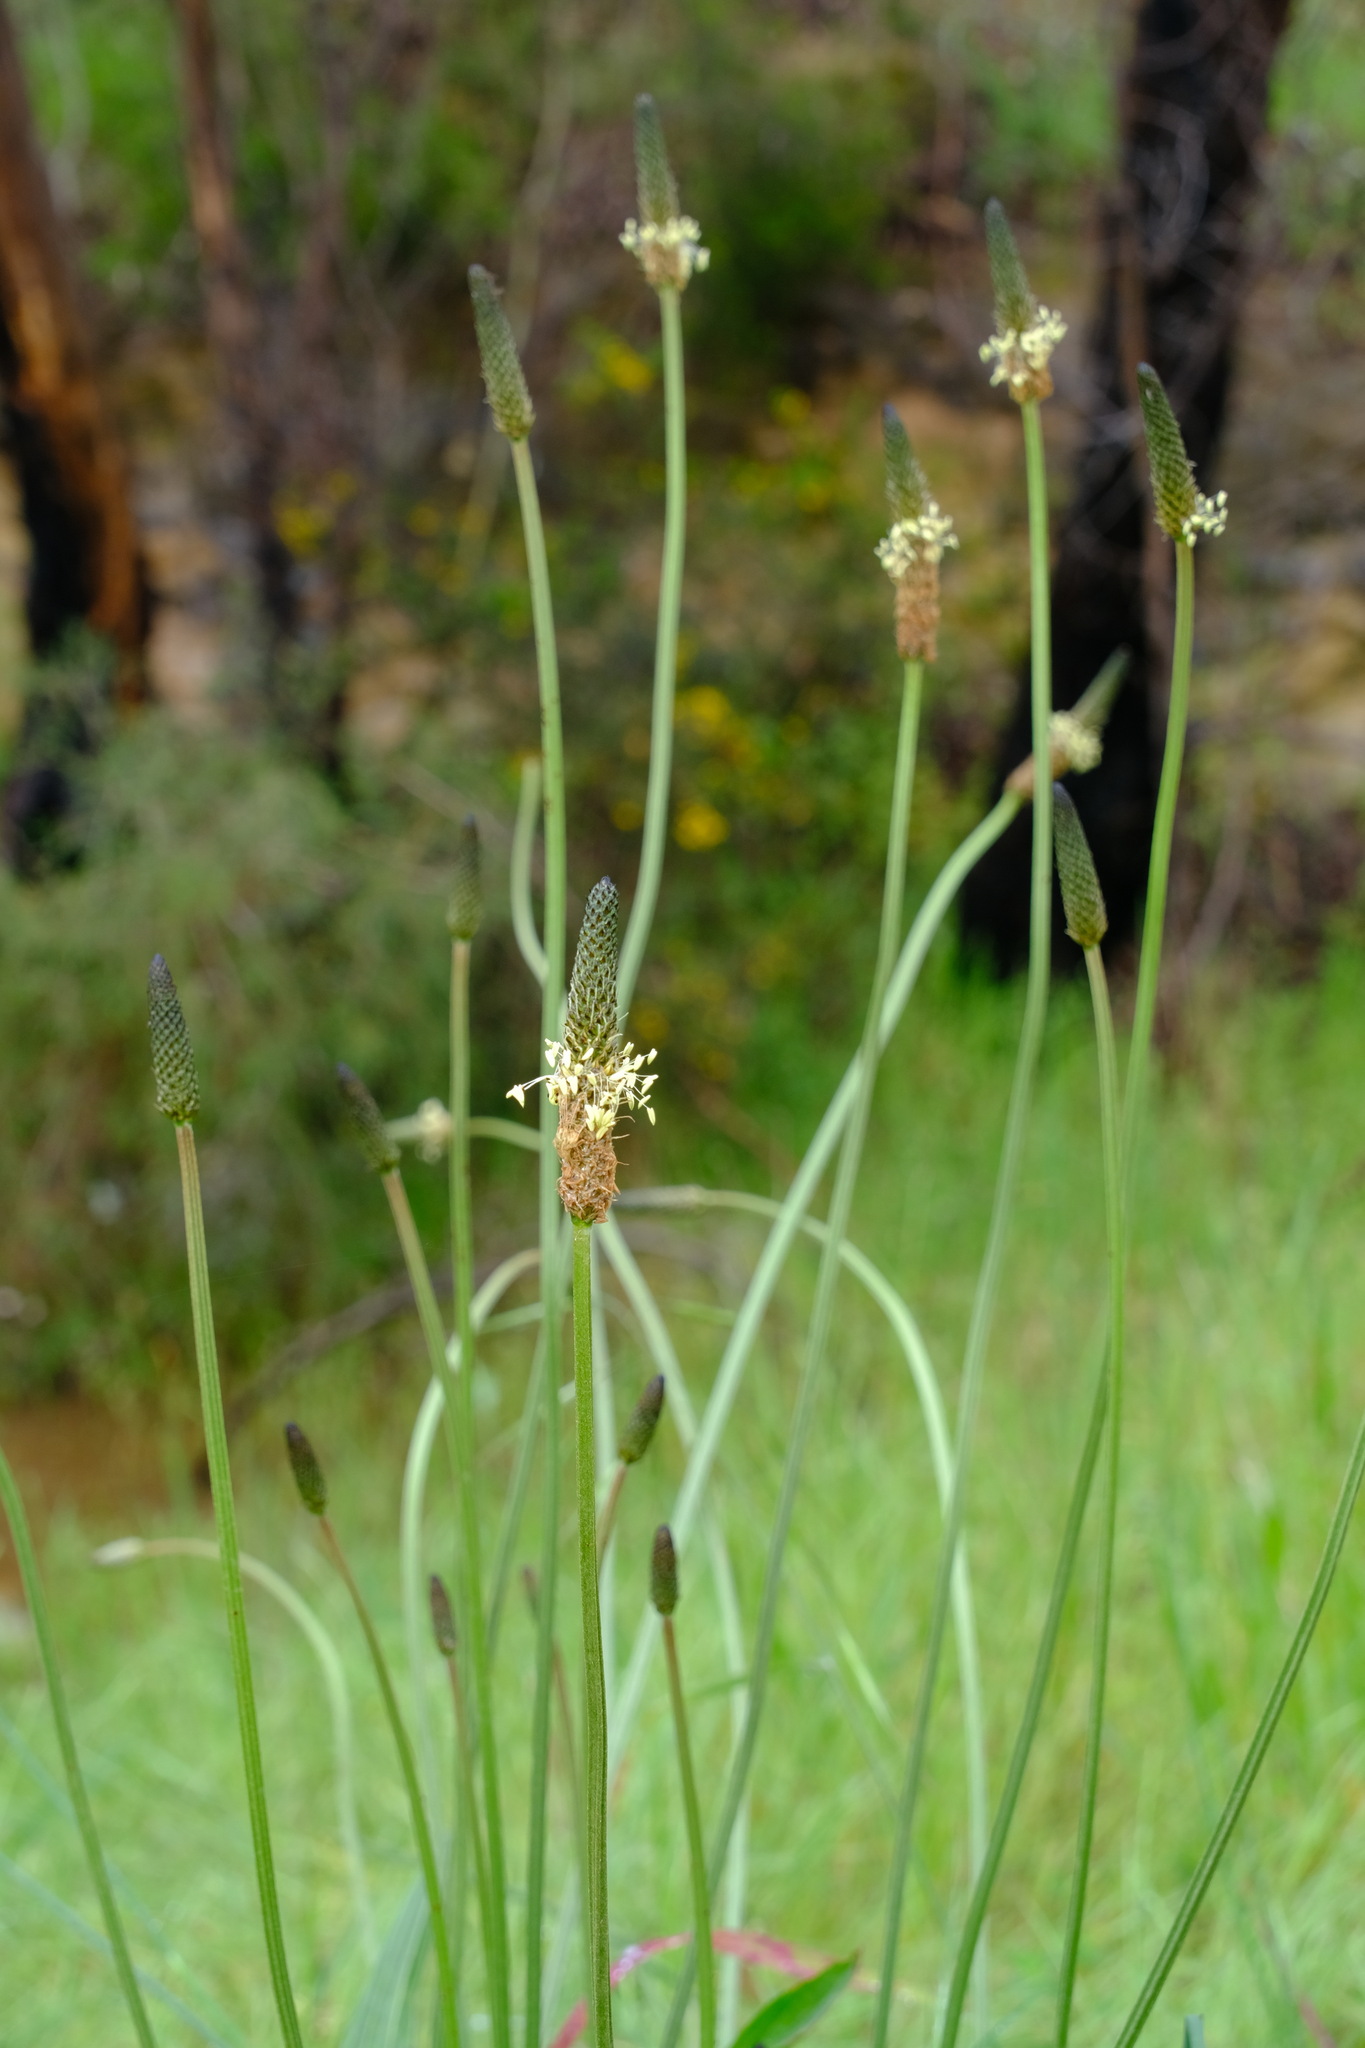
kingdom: Plantae
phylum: Tracheophyta
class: Magnoliopsida
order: Lamiales
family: Plantaginaceae
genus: Plantago
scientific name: Plantago lanceolata
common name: Ribwort plantain
